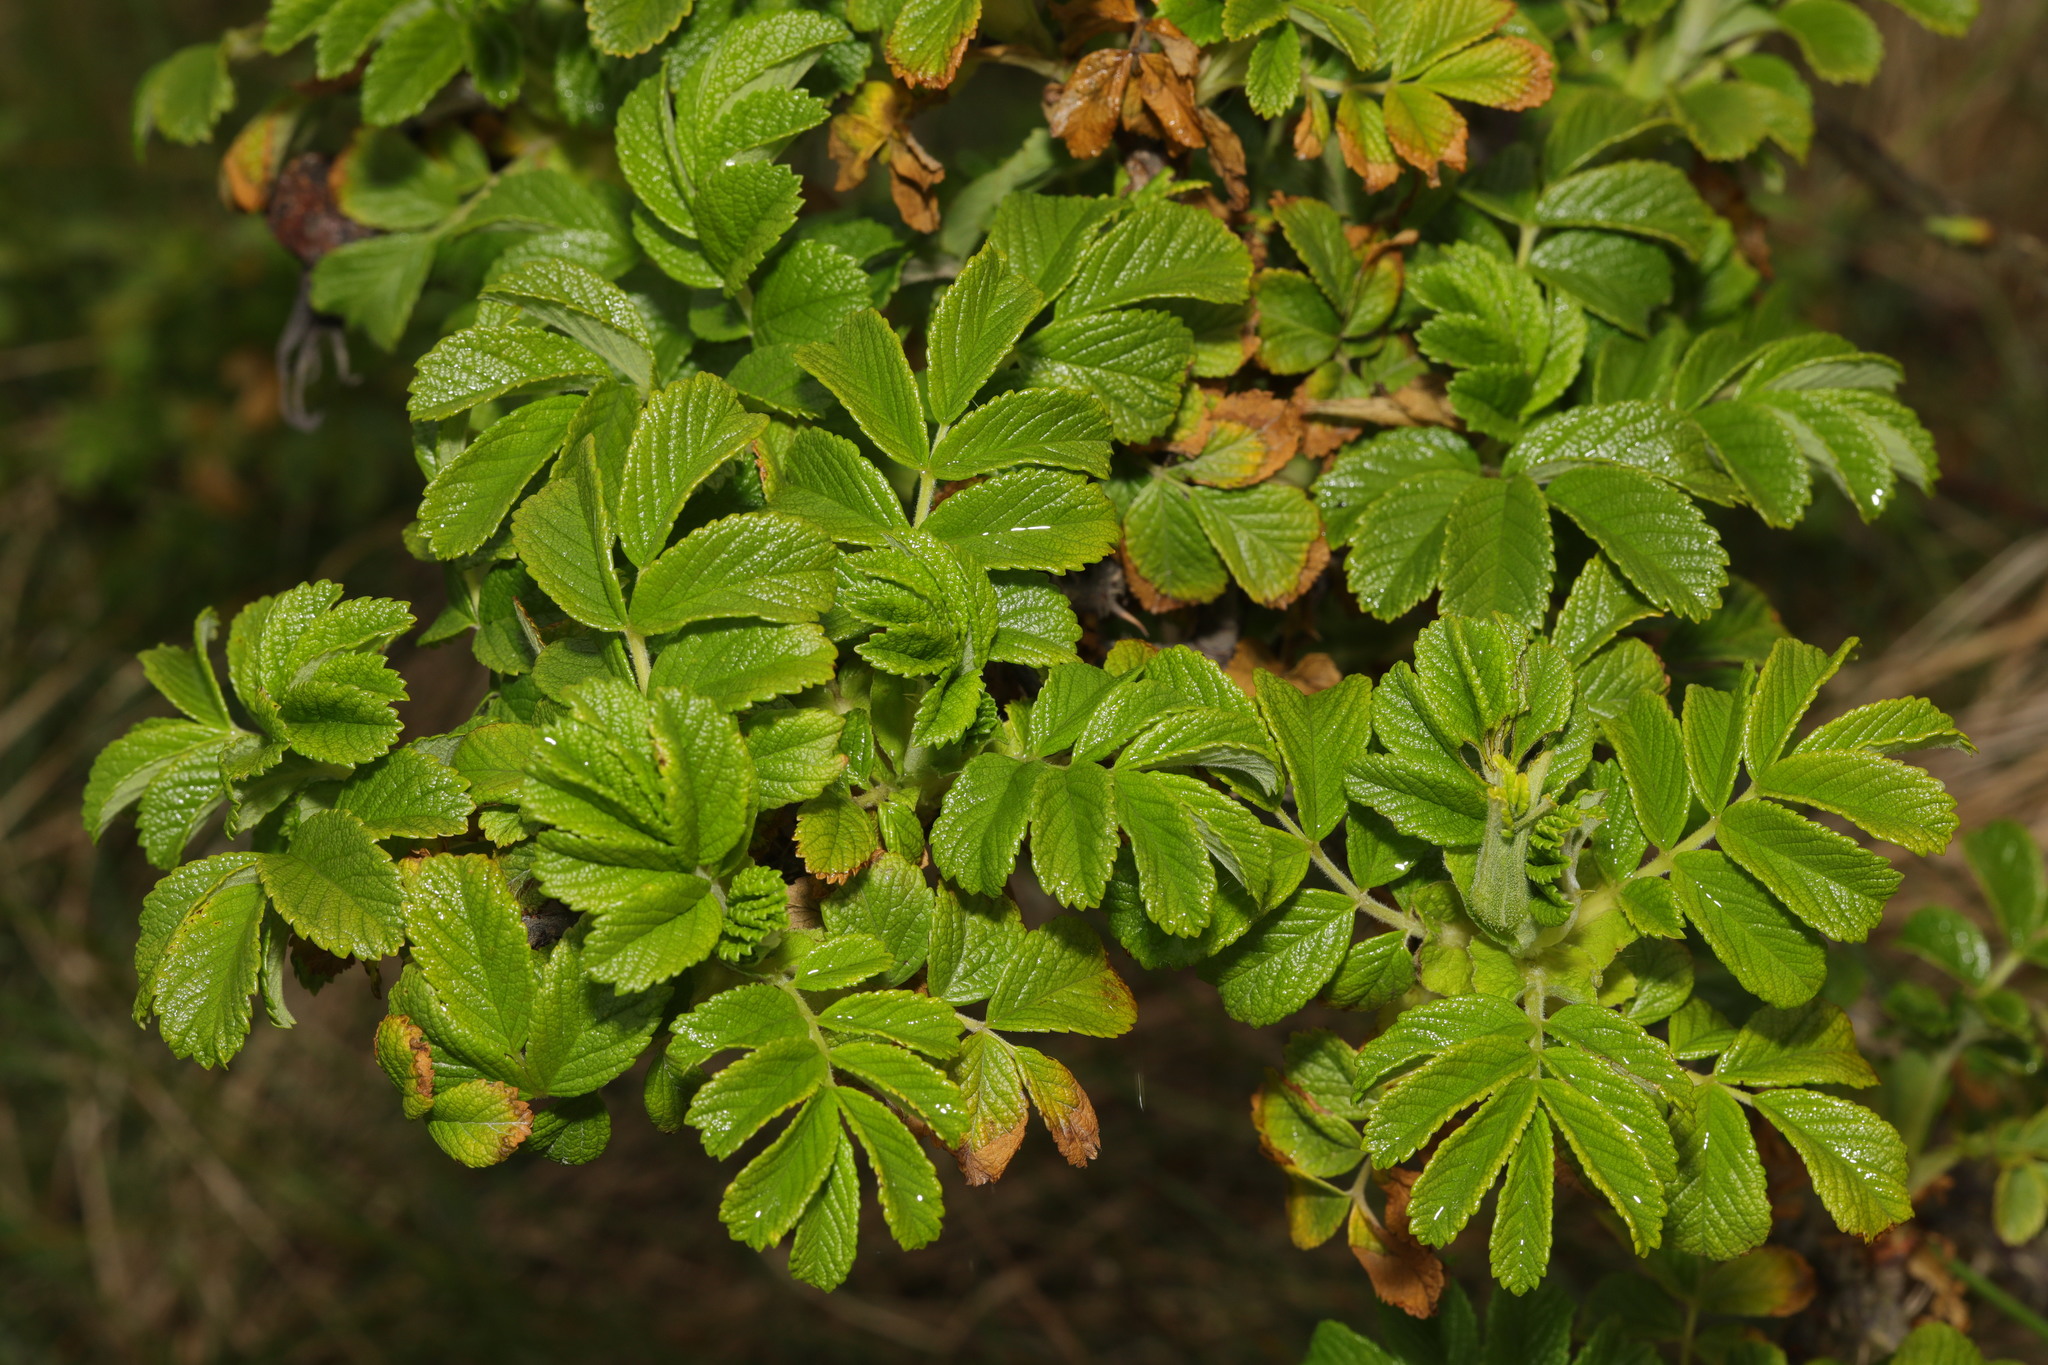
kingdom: Plantae
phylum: Tracheophyta
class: Magnoliopsida
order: Rosales
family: Rosaceae
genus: Rosa
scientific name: Rosa rugosa
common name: Japanese rose
